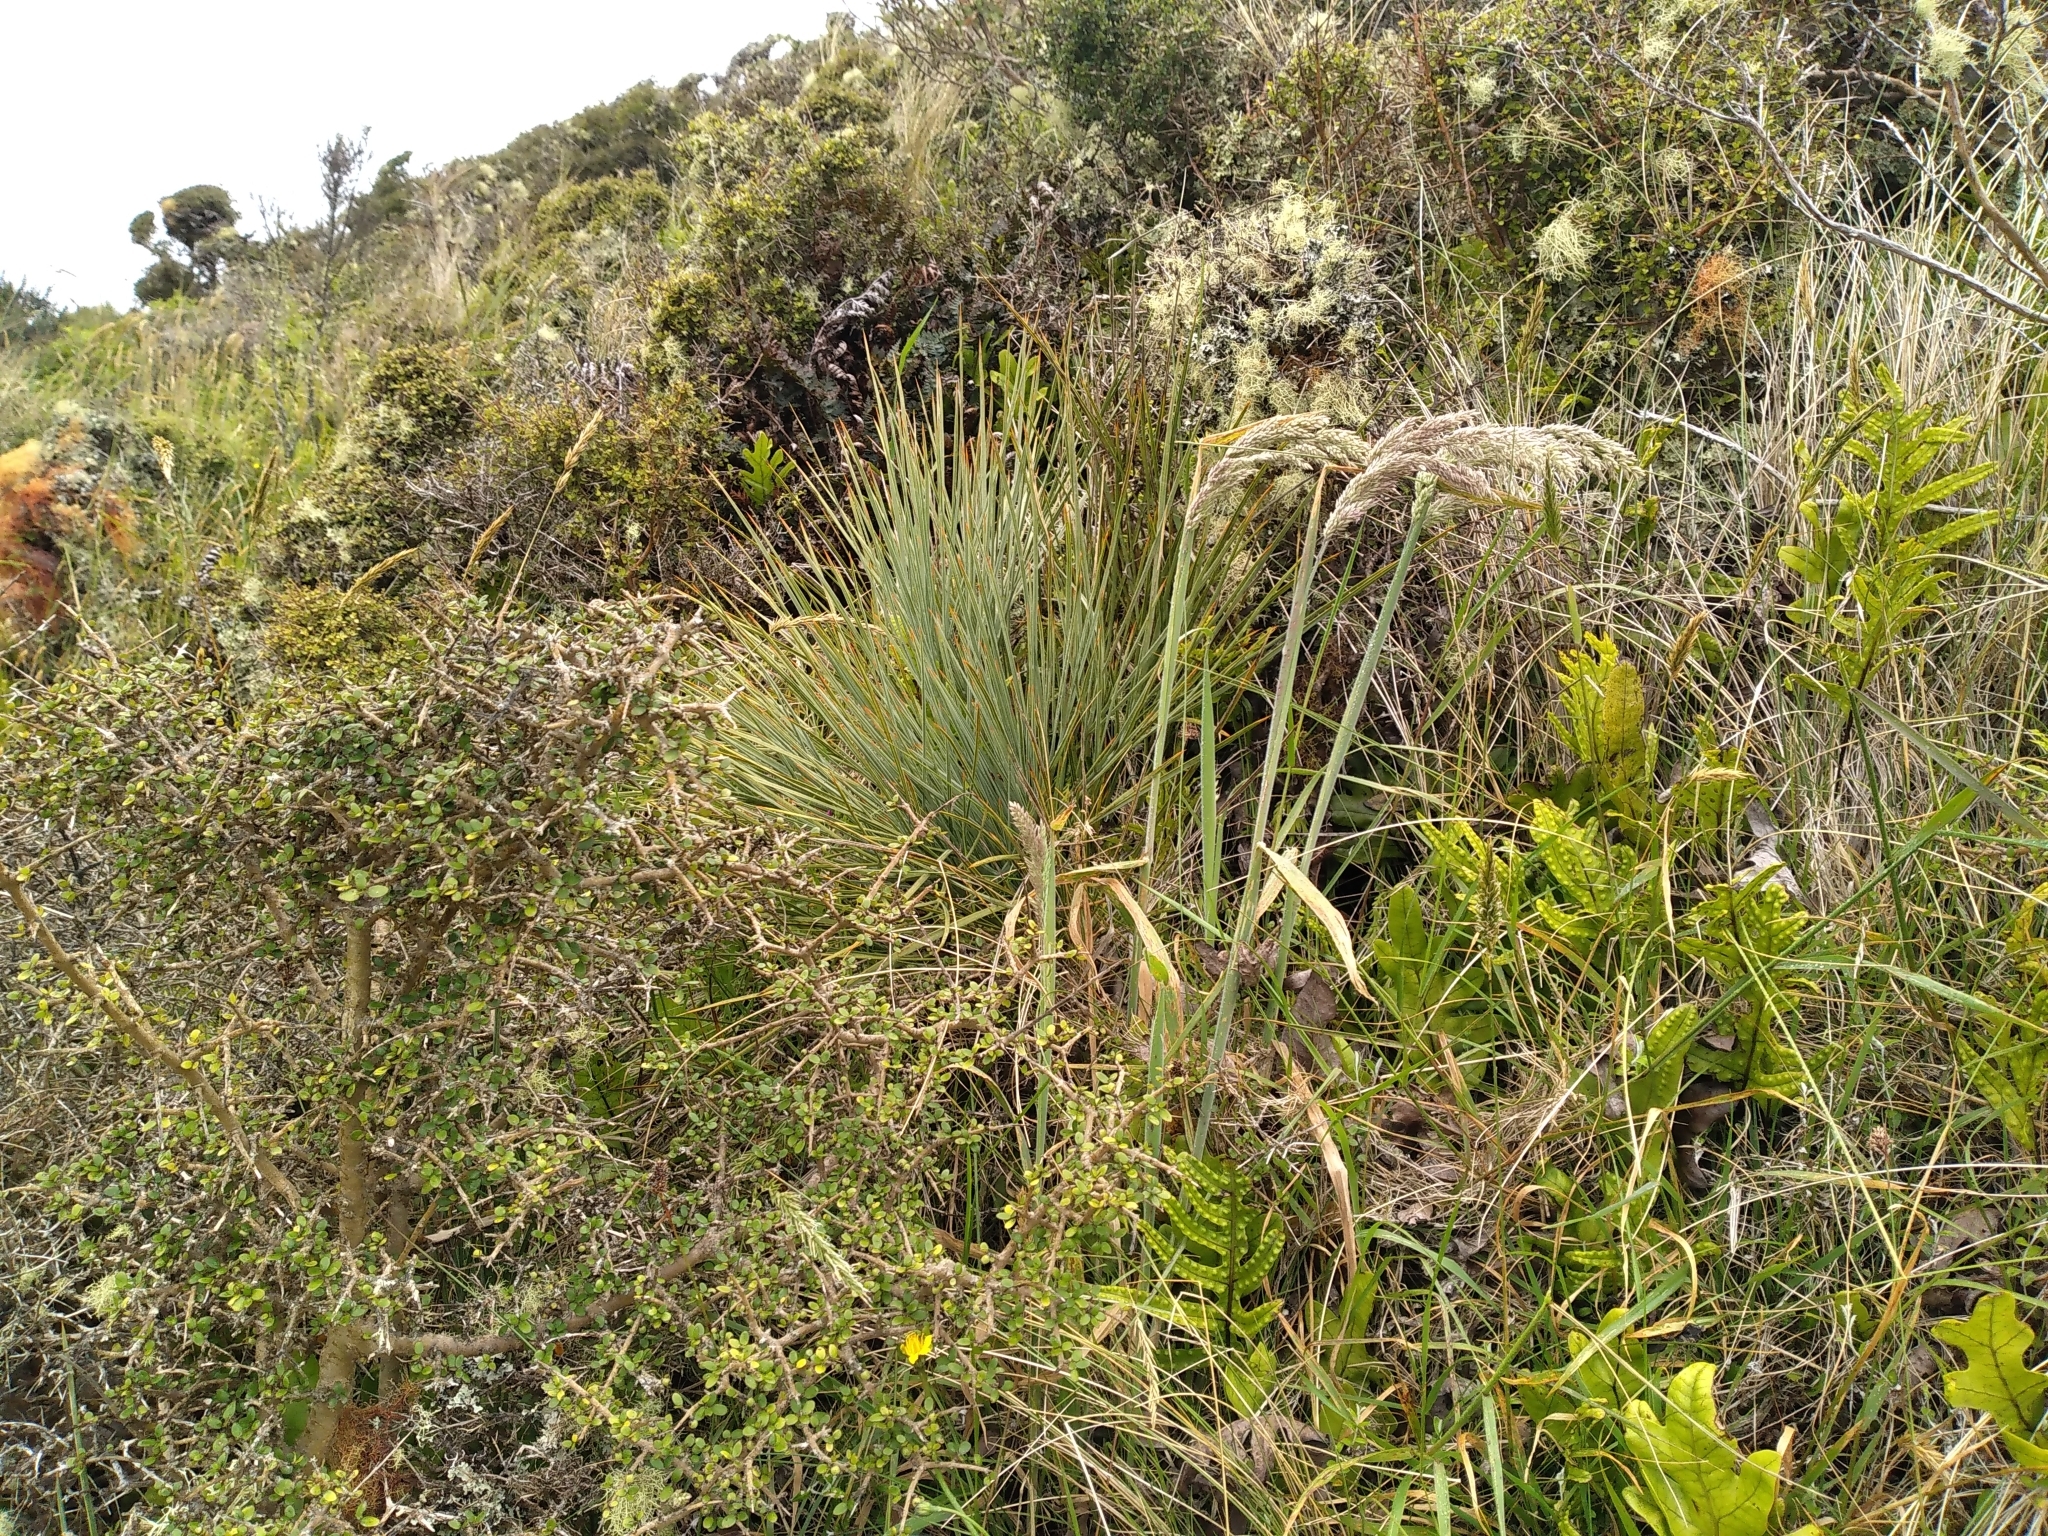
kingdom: Plantae
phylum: Tracheophyta
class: Magnoliopsida
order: Apiales
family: Apiaceae
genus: Aciphylla
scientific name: Aciphylla squarrosa
